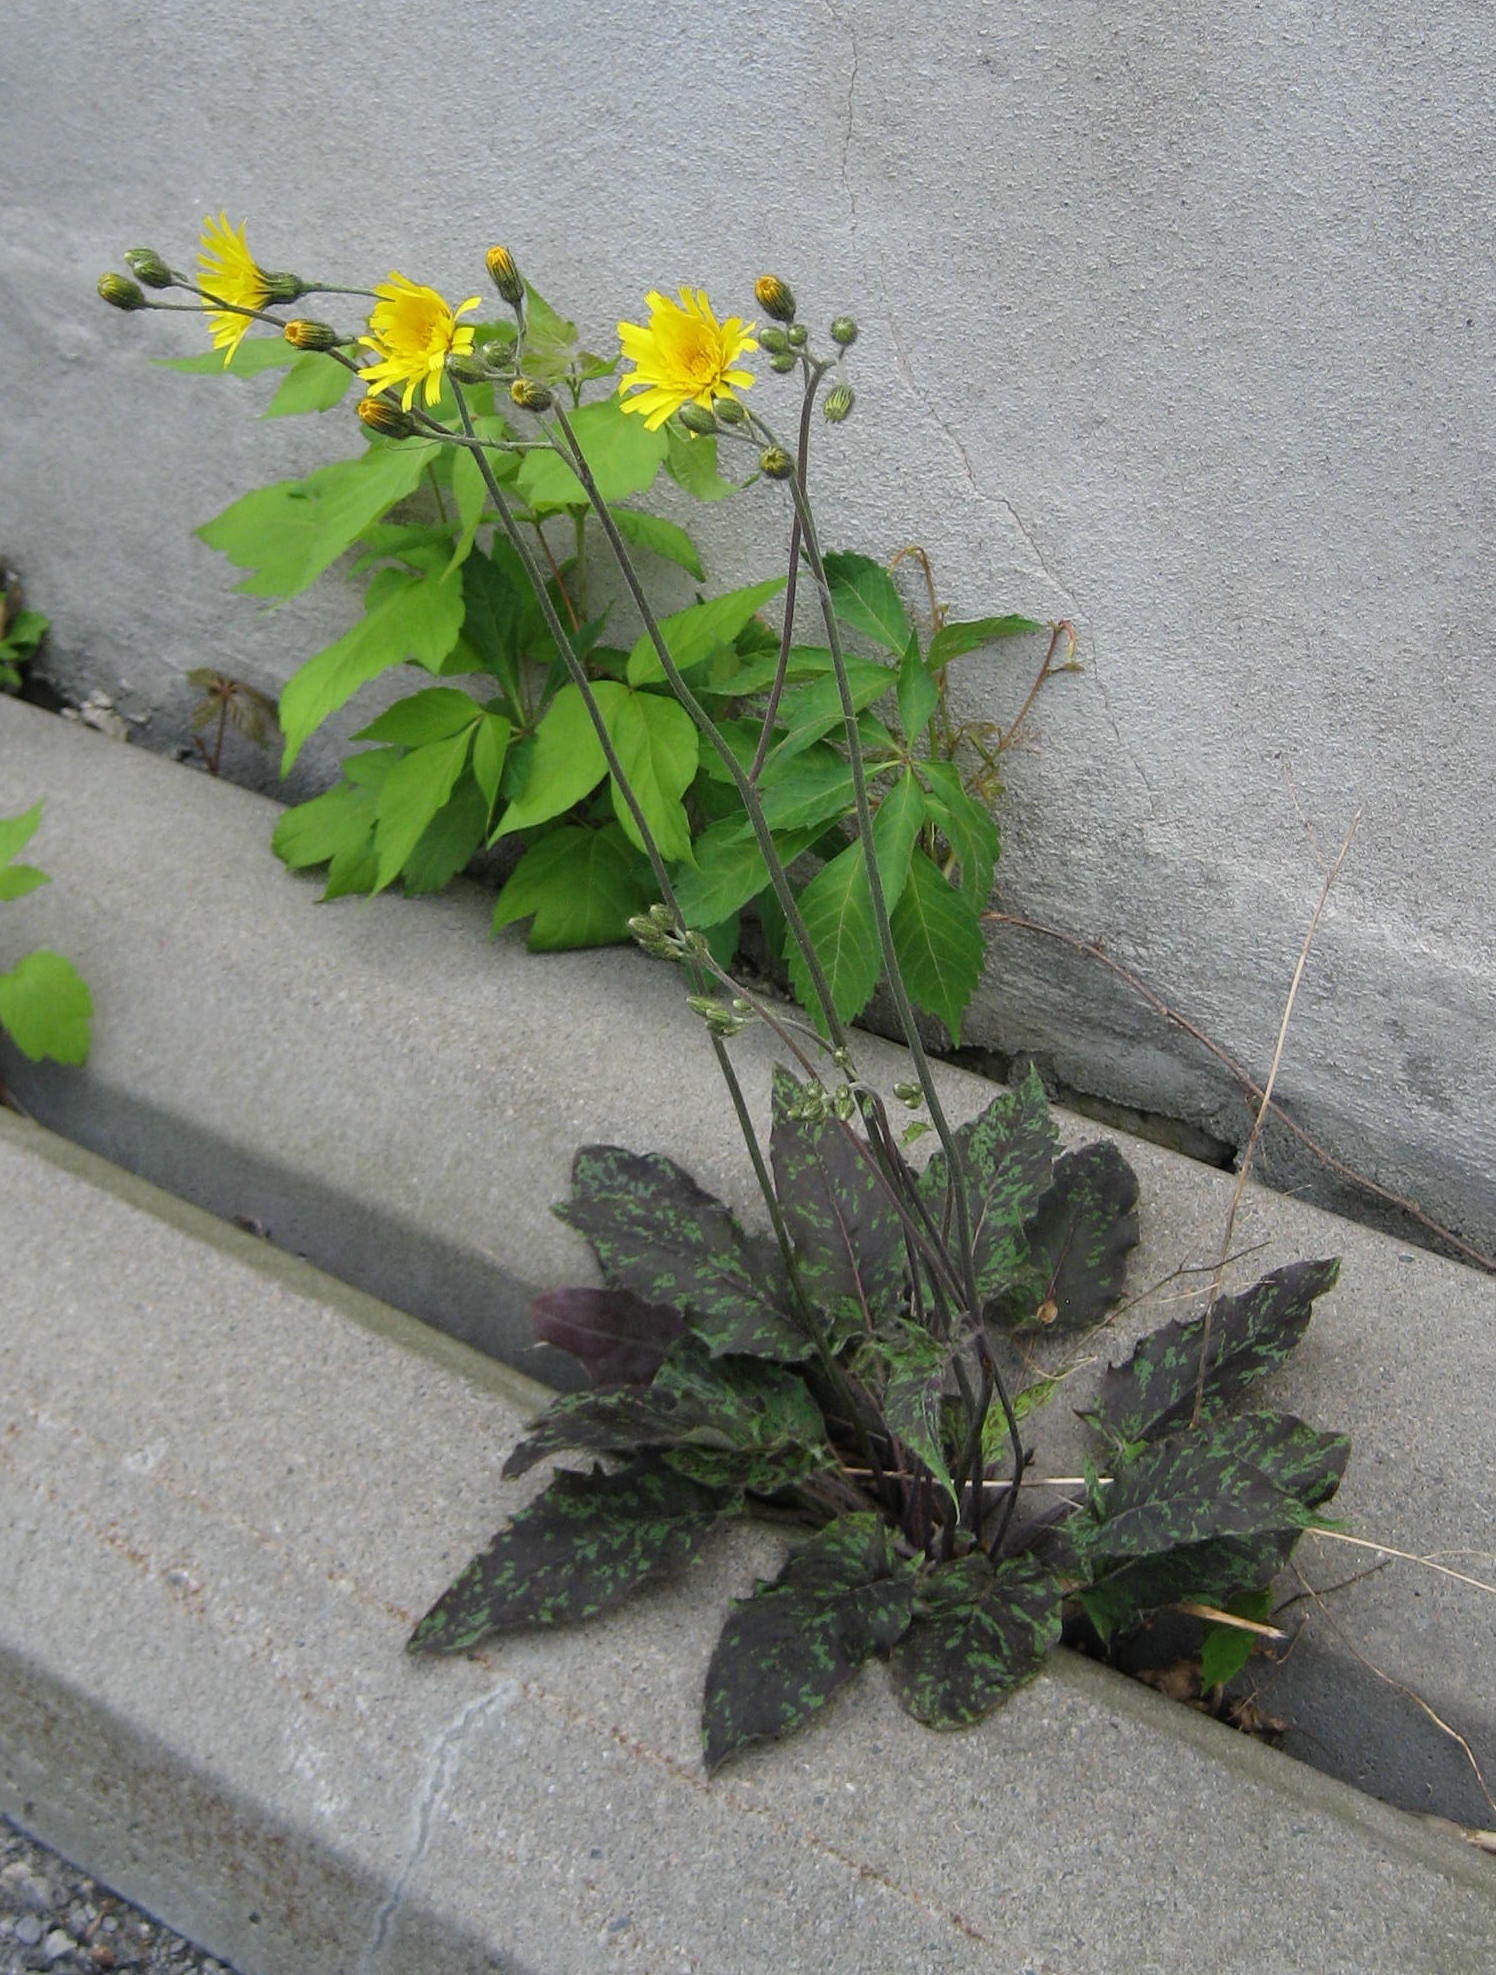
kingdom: Plantae
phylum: Tracheophyta
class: Magnoliopsida
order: Asterales
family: Asteraceae
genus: Hieracium
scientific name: Hieracium maculatum
